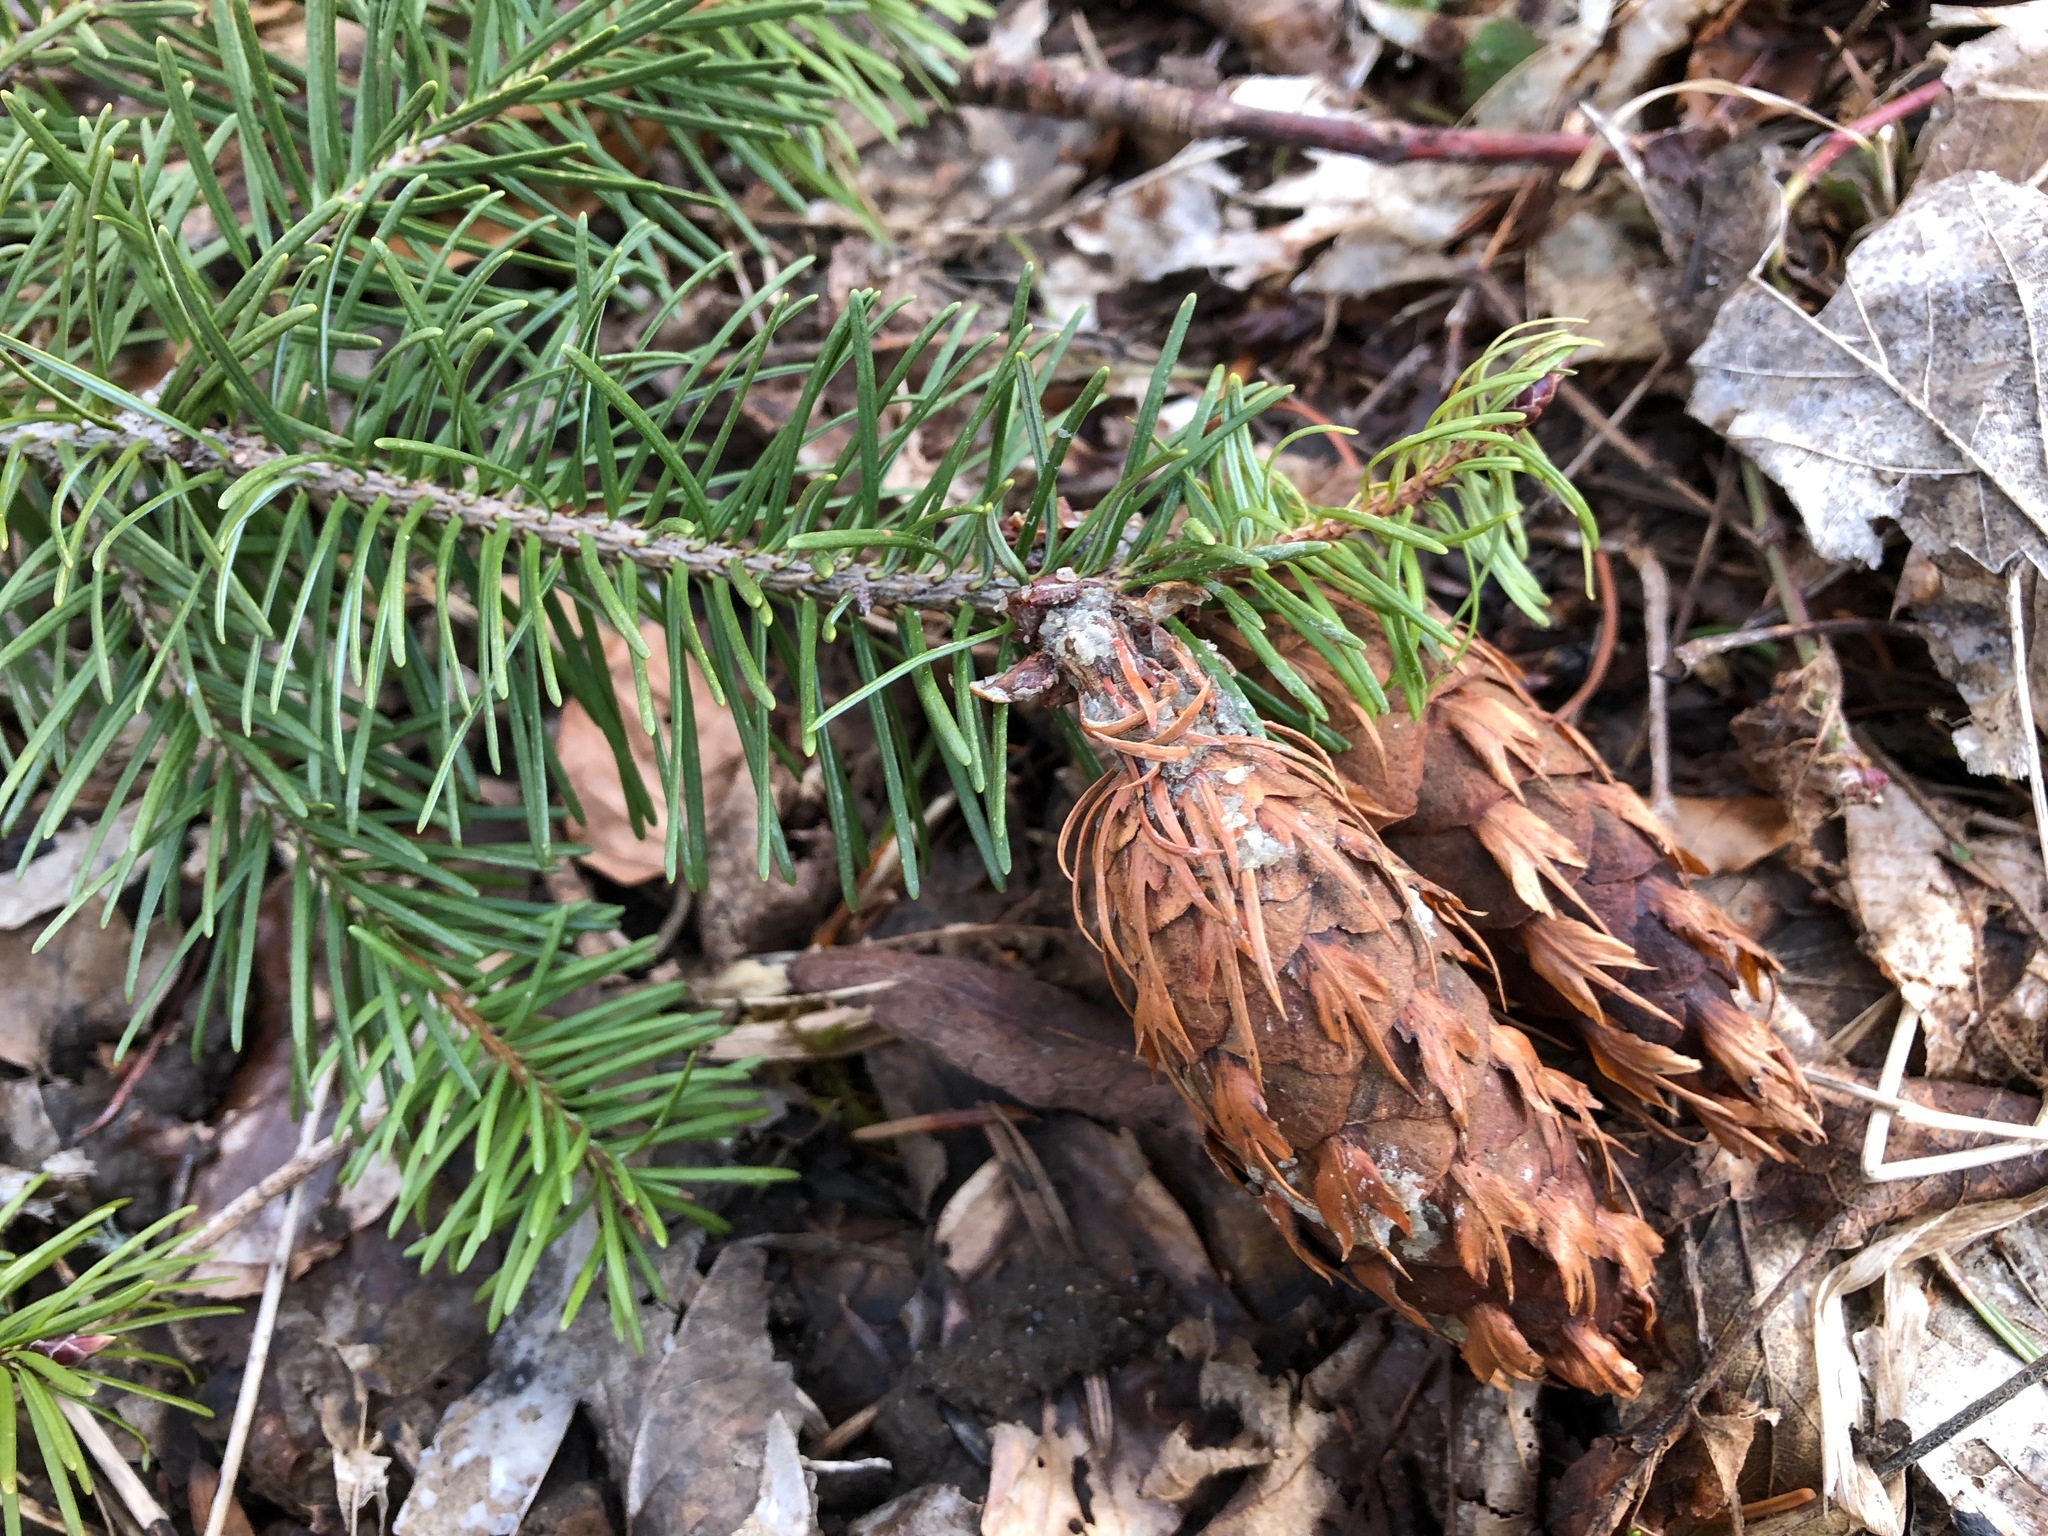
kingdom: Plantae
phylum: Tracheophyta
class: Pinopsida
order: Pinales
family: Pinaceae
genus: Pseudotsuga
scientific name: Pseudotsuga menziesii
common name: Douglas fir
